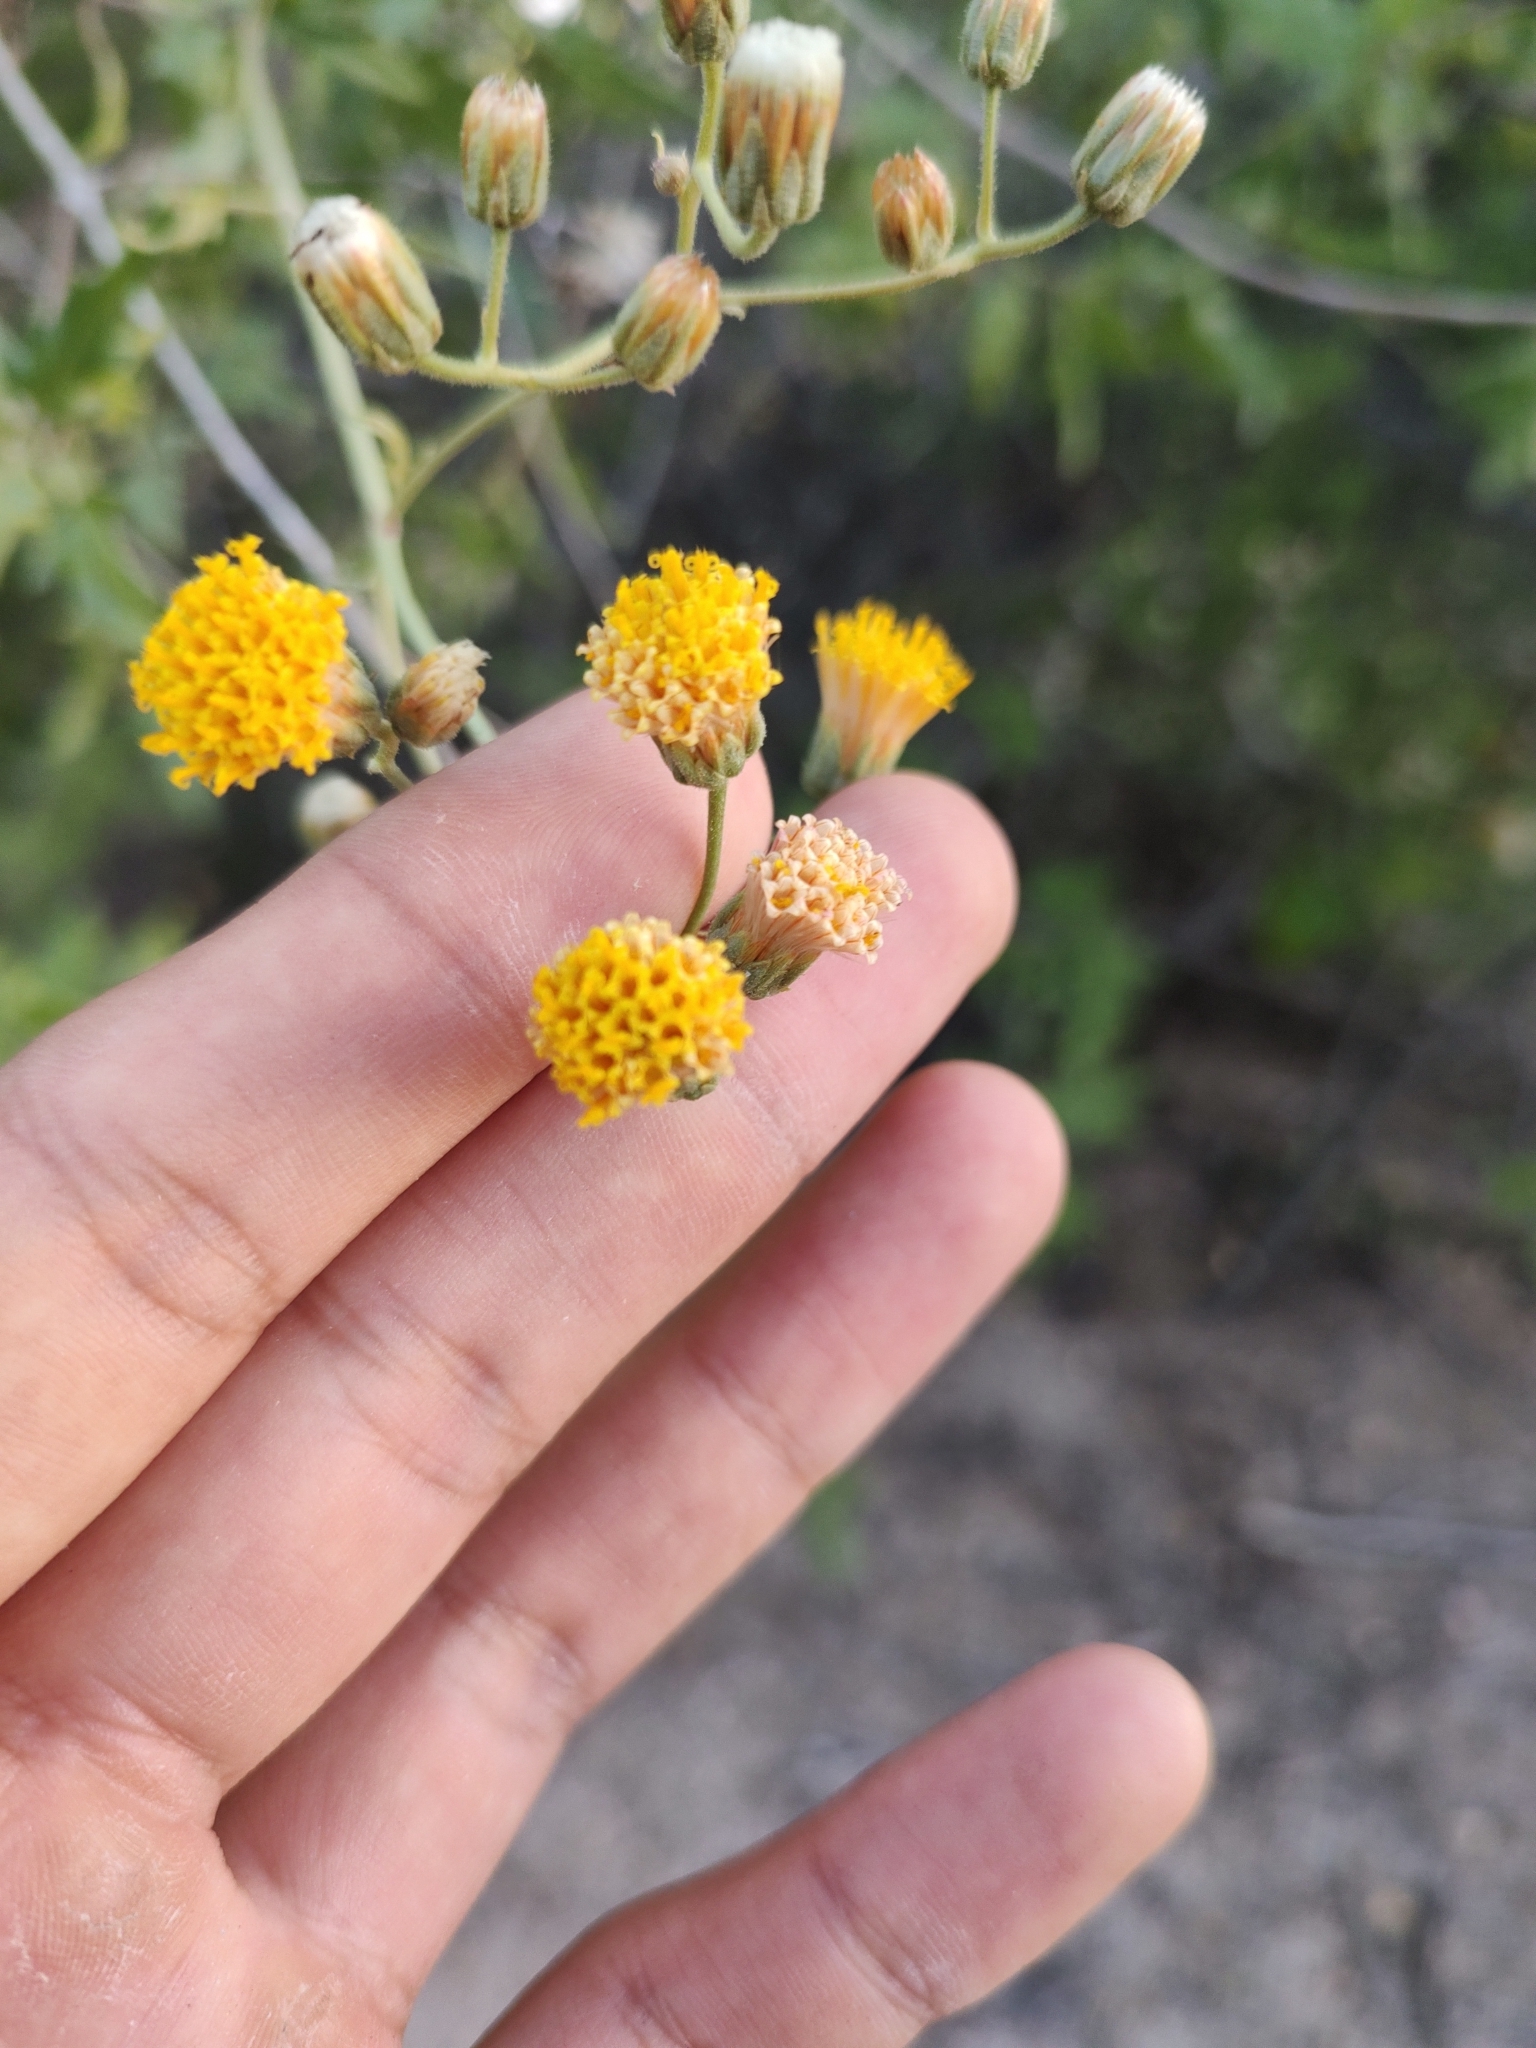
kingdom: Plantae
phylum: Tracheophyta
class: Magnoliopsida
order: Asterales
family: Asteraceae
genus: Bebbia
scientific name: Bebbia atriplicifolia
